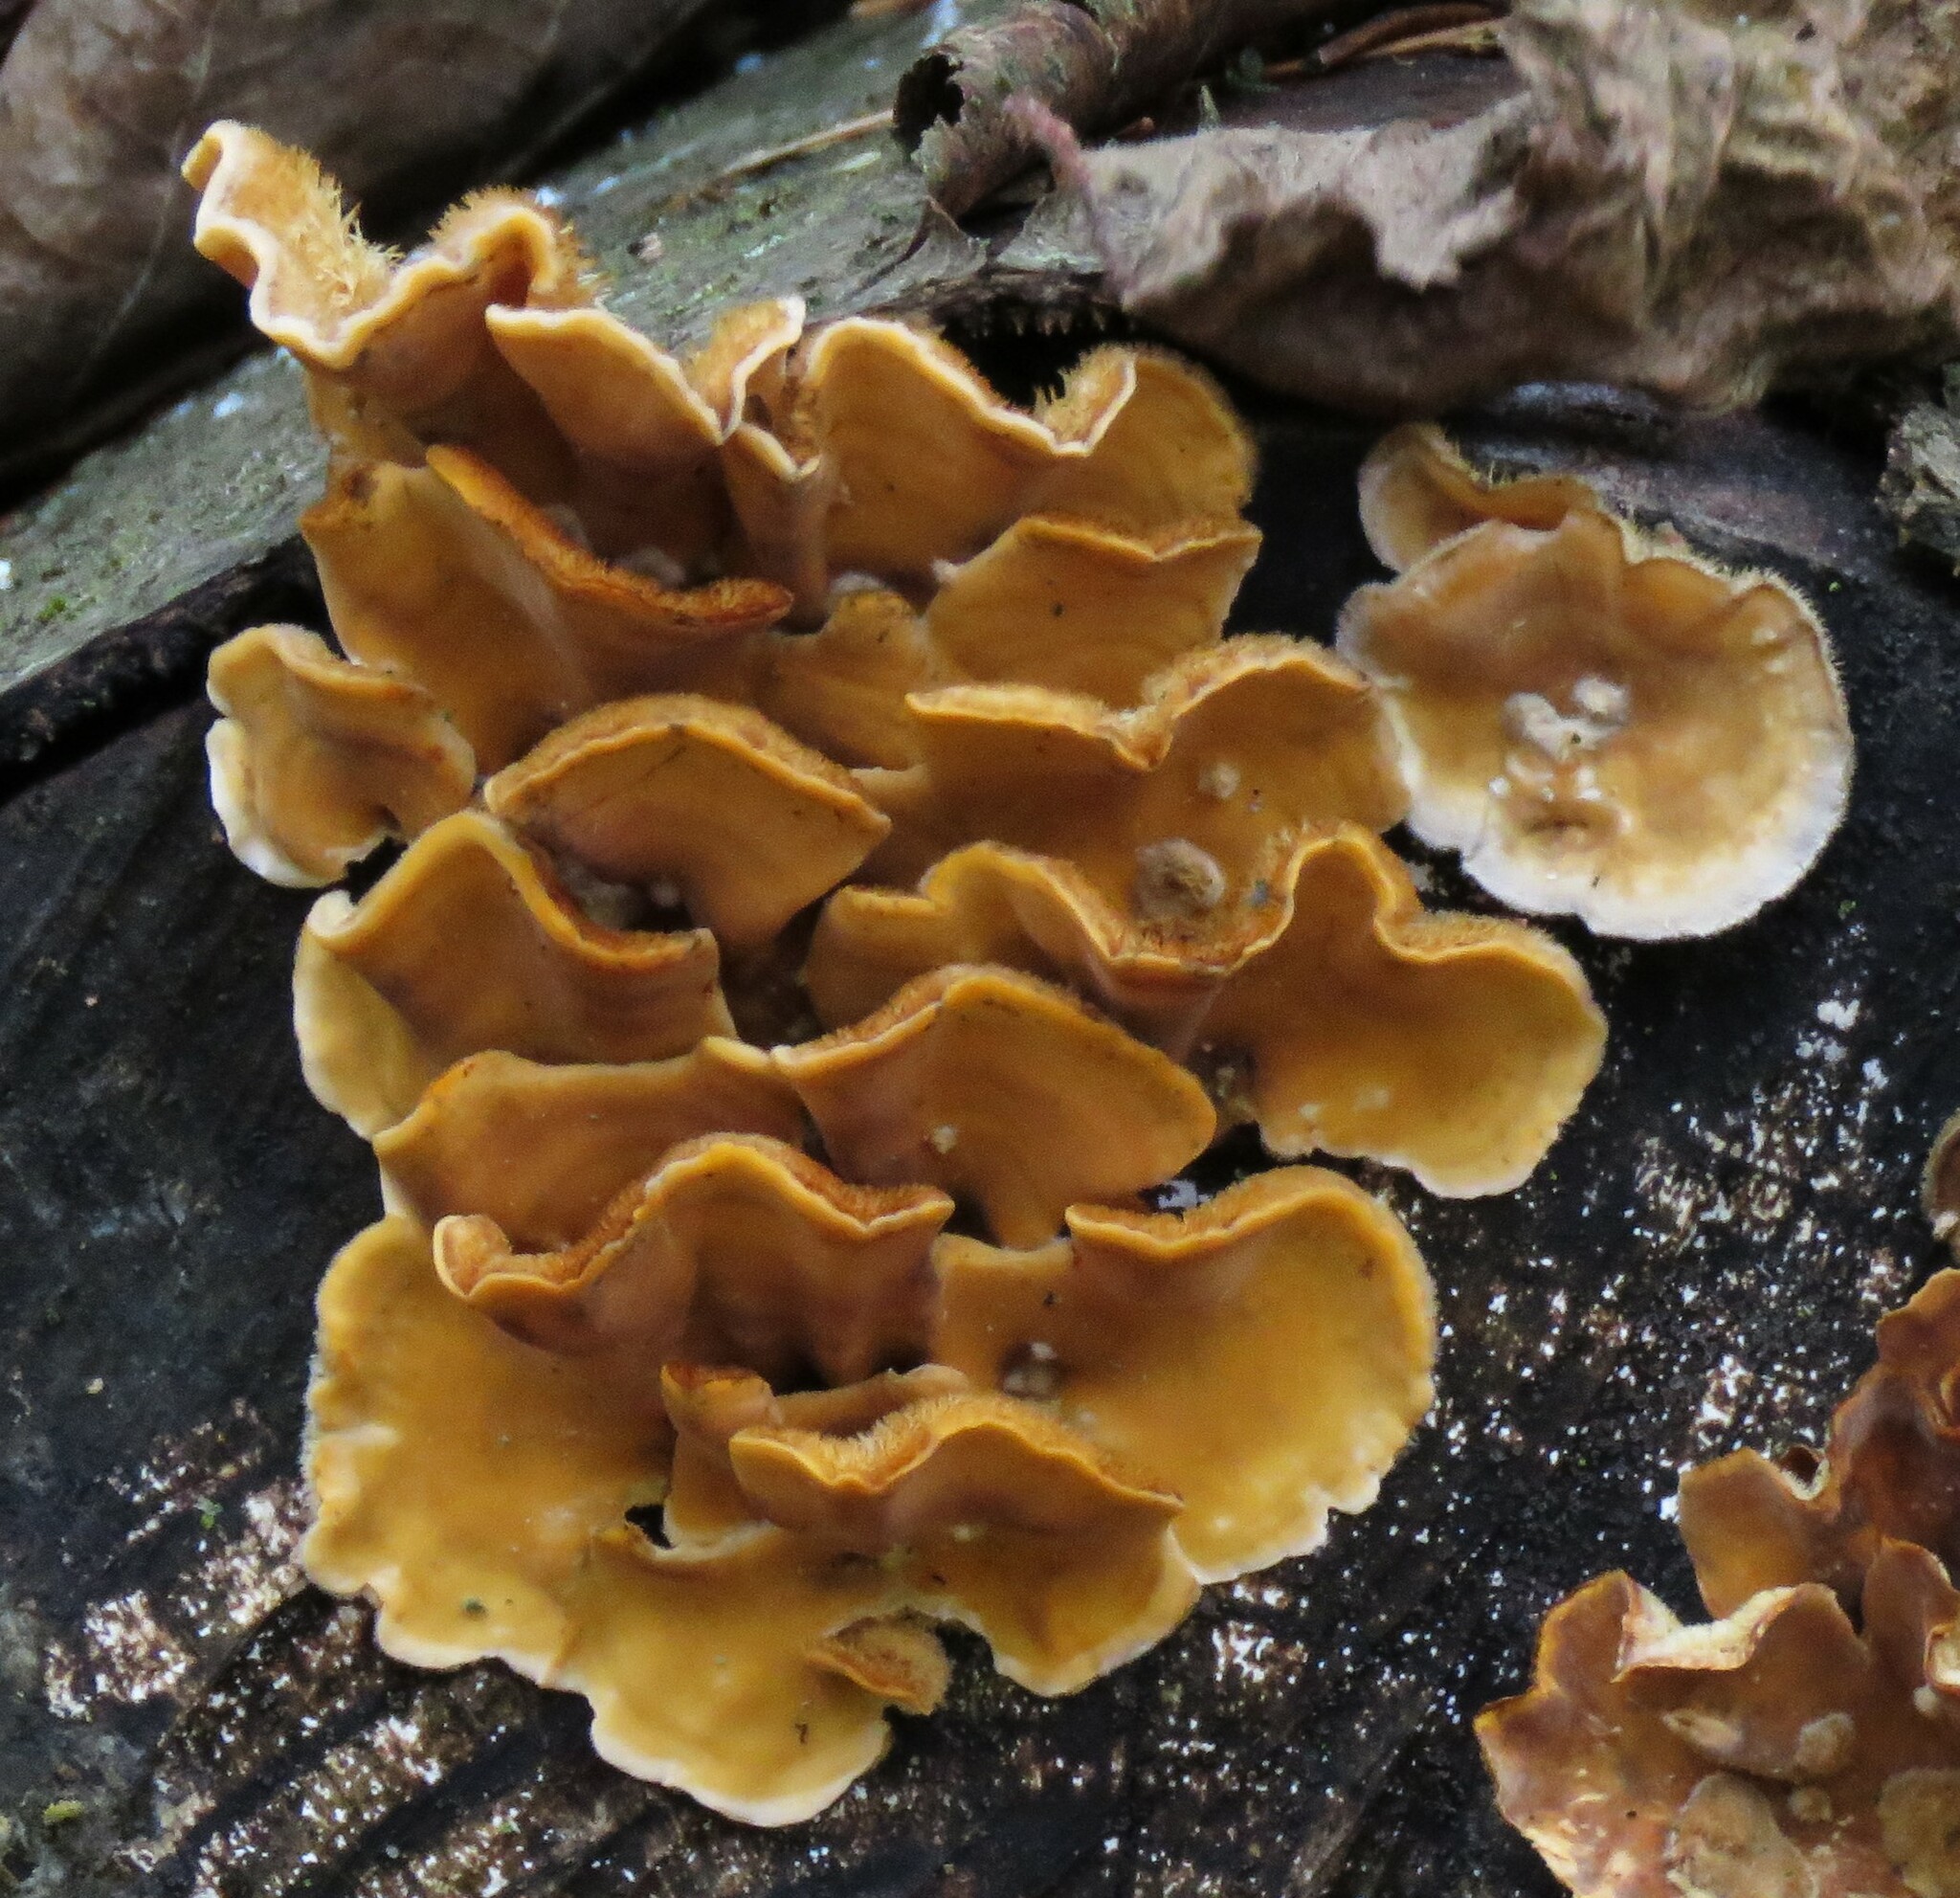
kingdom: Fungi
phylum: Basidiomycota
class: Agaricomycetes
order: Russulales
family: Stereaceae
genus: Stereum
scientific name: Stereum hirsutum
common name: Hairy curtain crust
